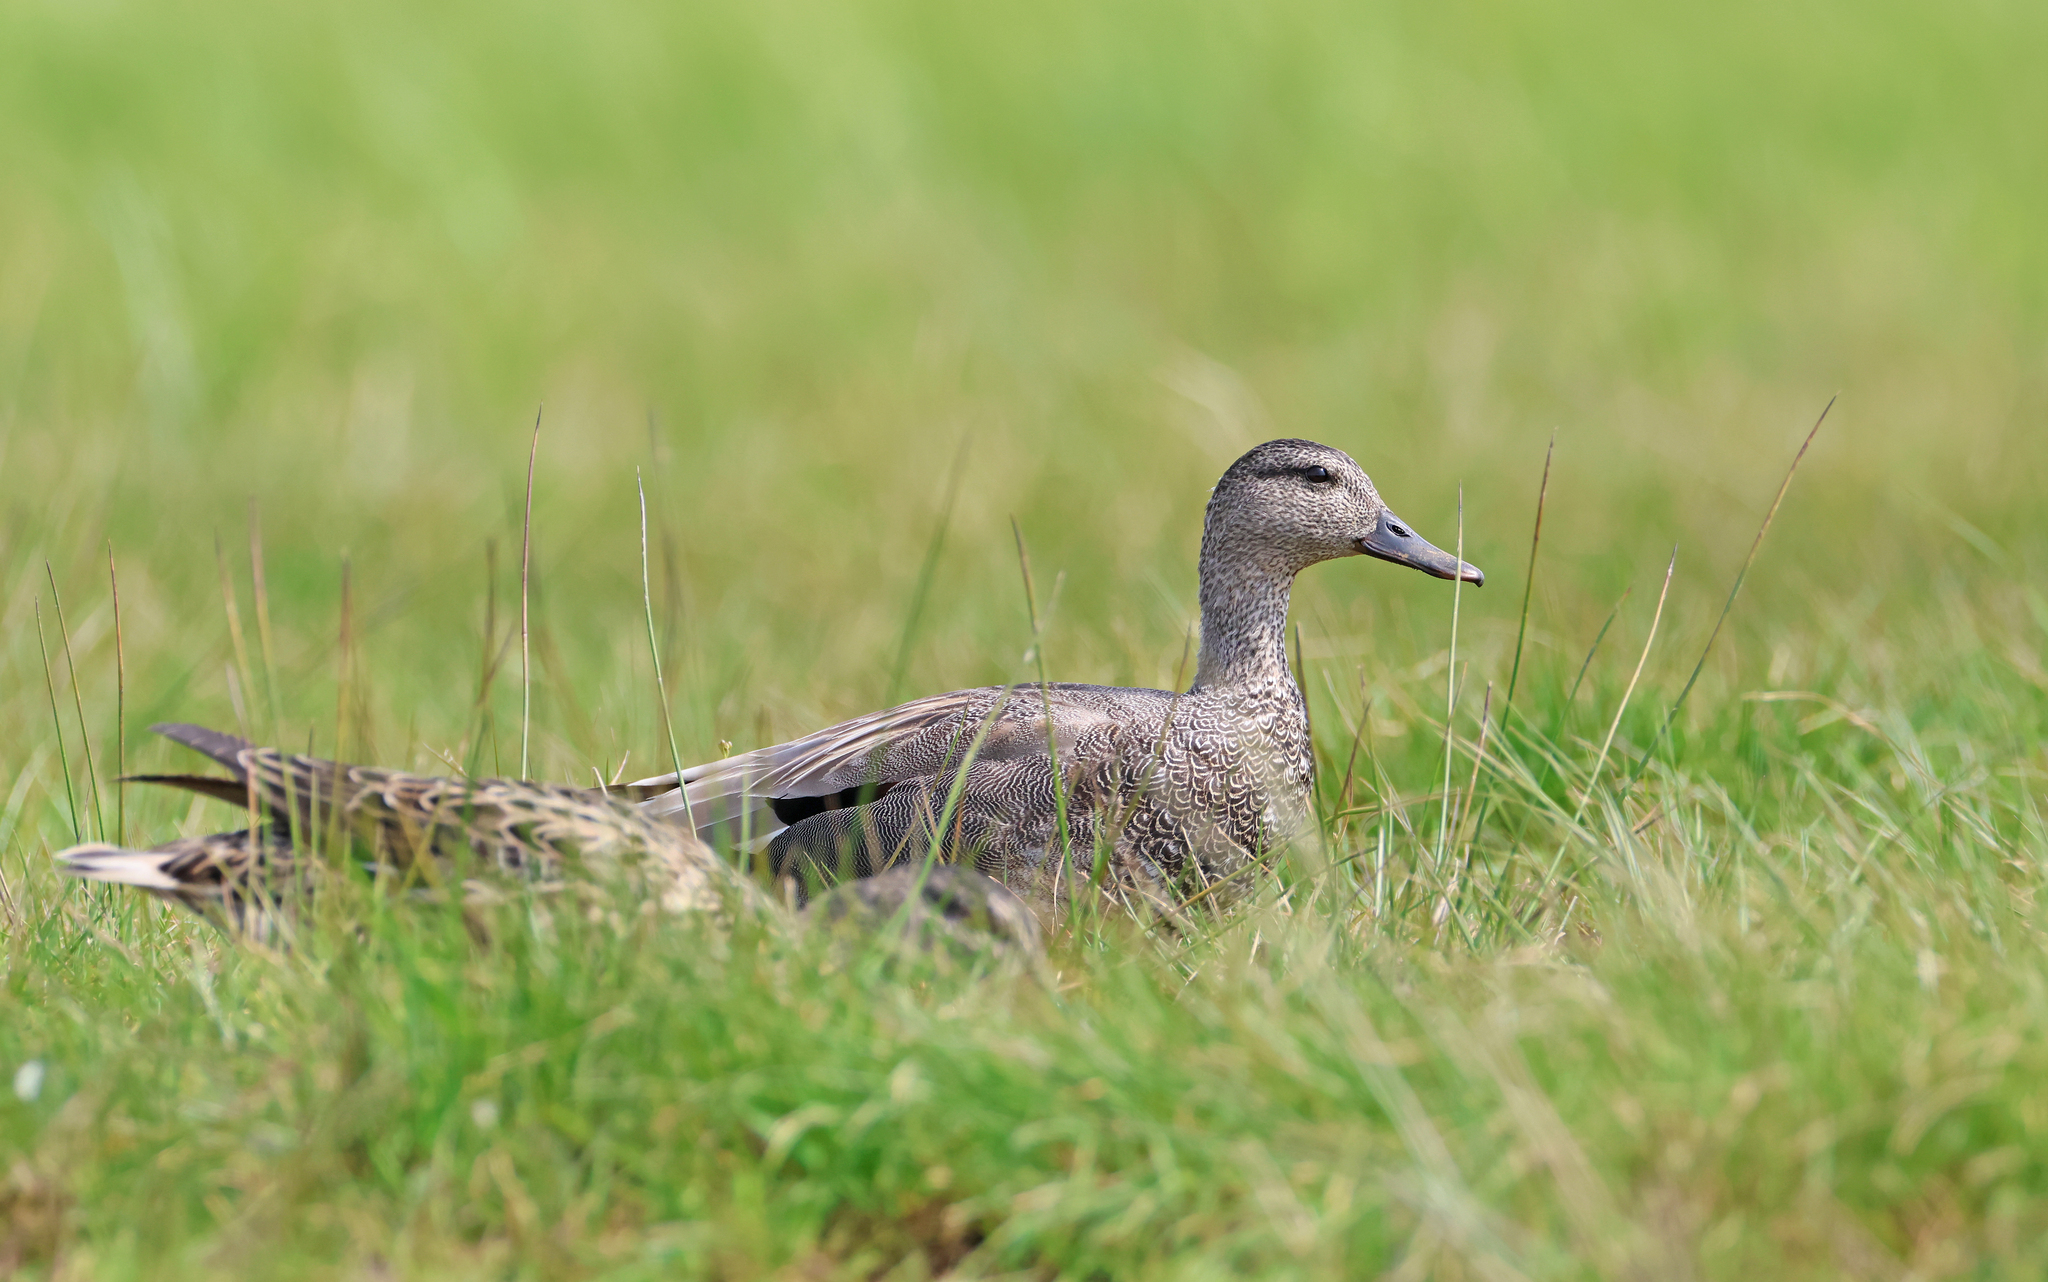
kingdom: Animalia
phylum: Chordata
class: Aves
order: Anseriformes
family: Anatidae
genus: Mareca
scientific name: Mareca strepera
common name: Gadwall
